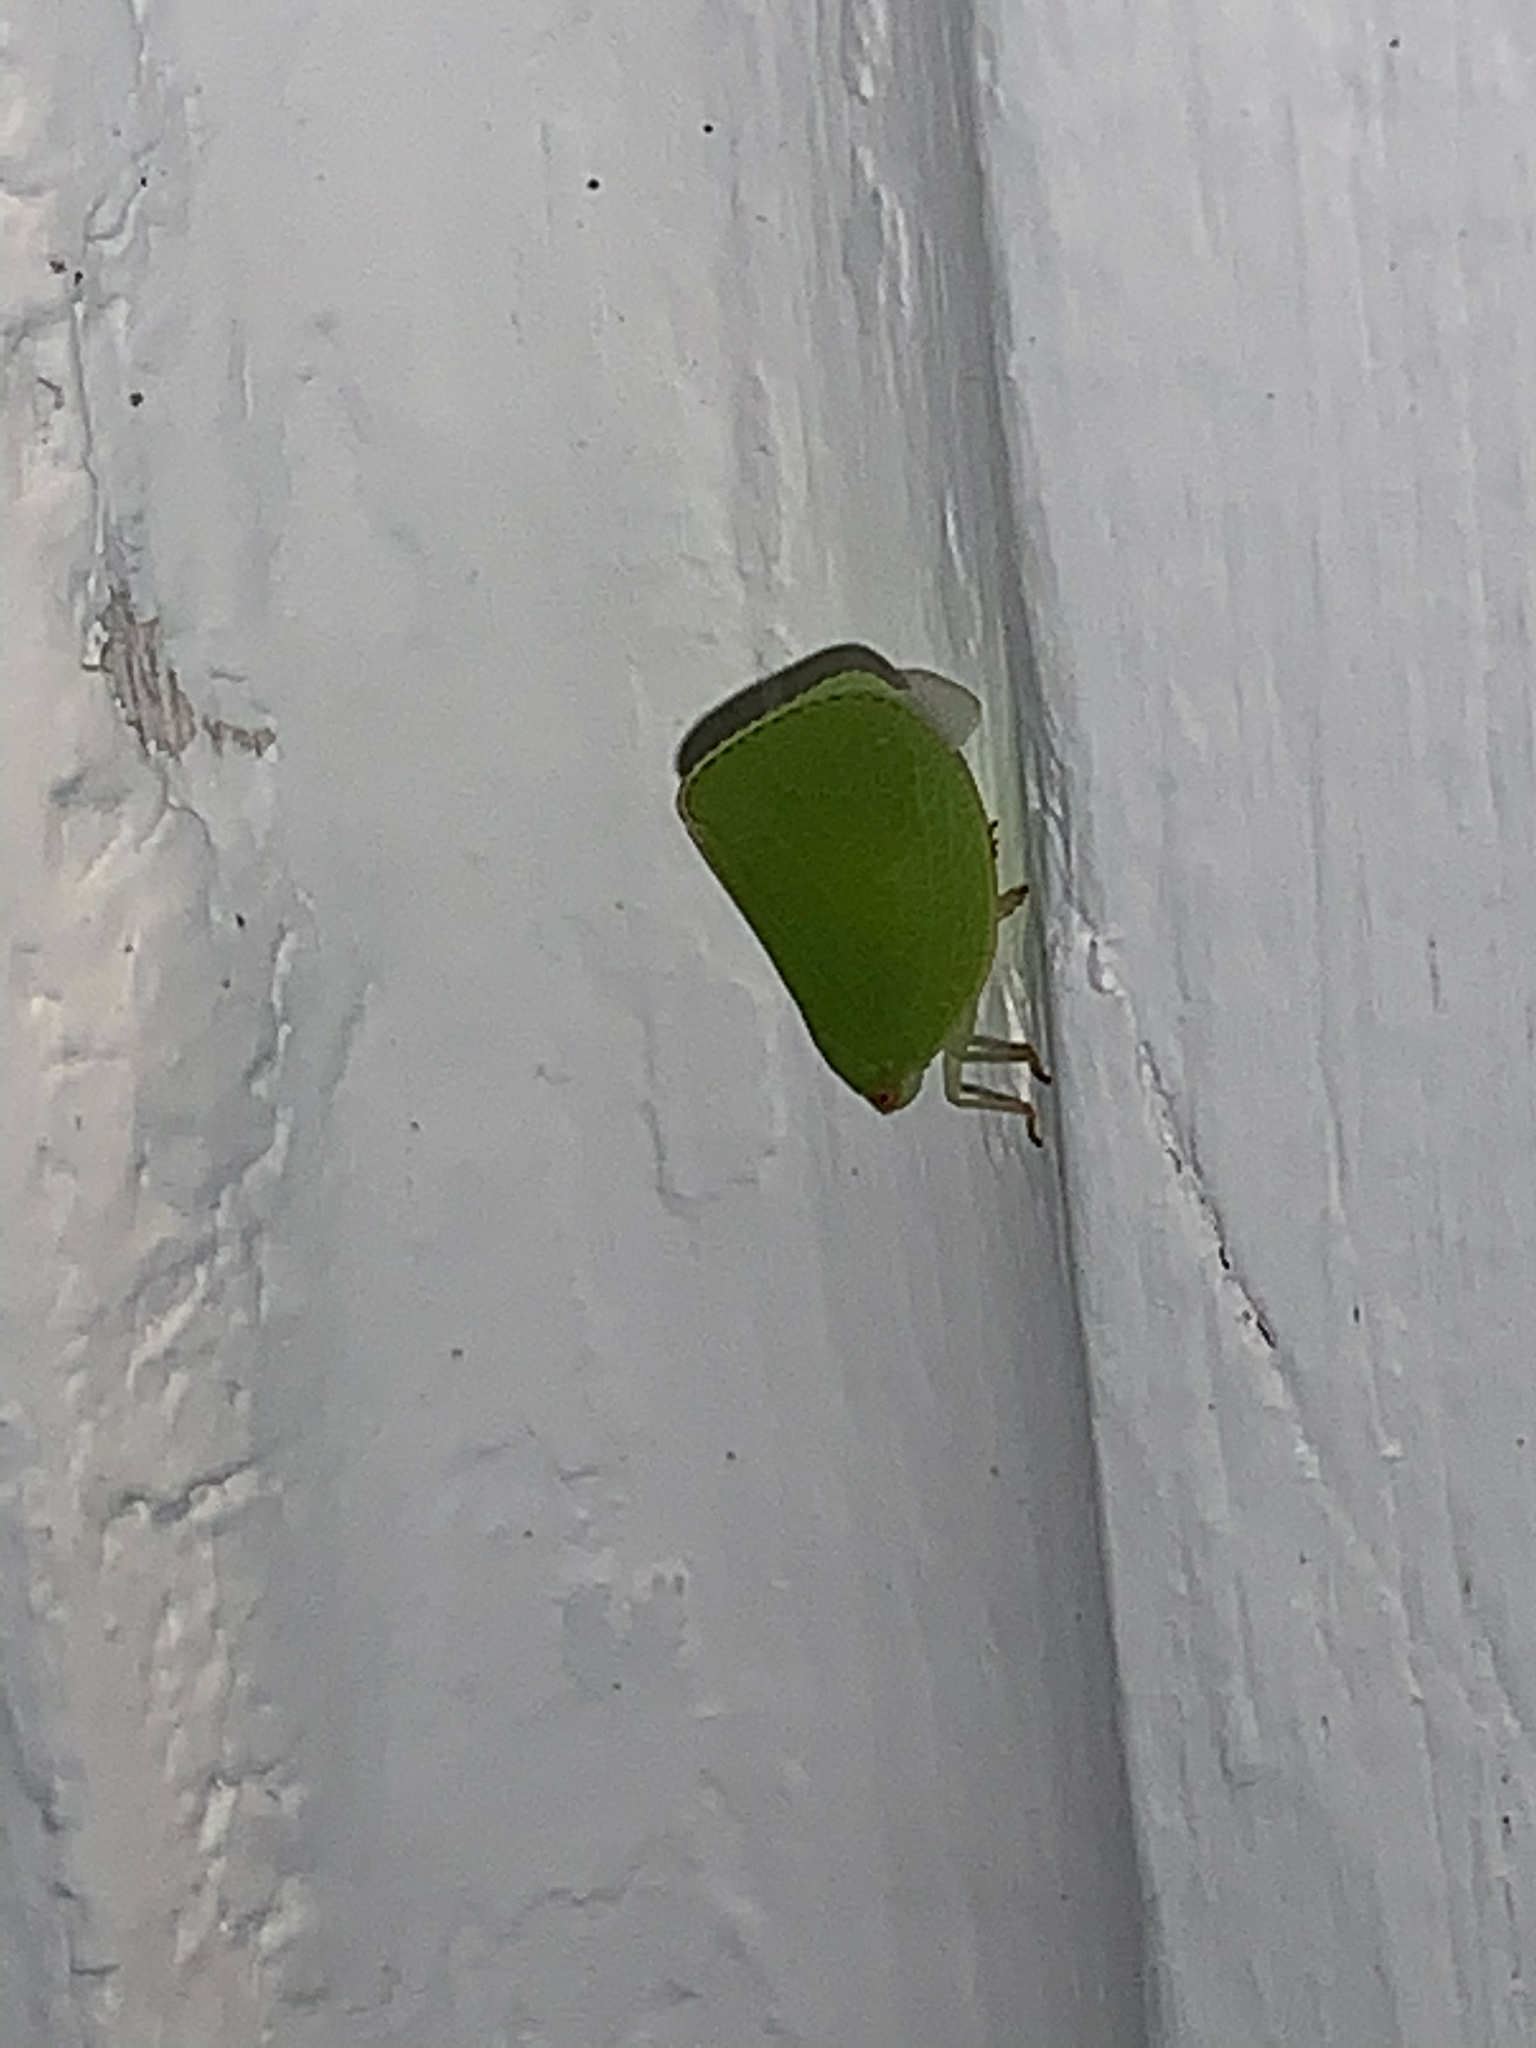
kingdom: Animalia
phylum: Arthropoda
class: Insecta
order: Hemiptera
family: Acanaloniidae
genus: Acanalonia
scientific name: Acanalonia conica
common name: Green cone-headed planthopper
